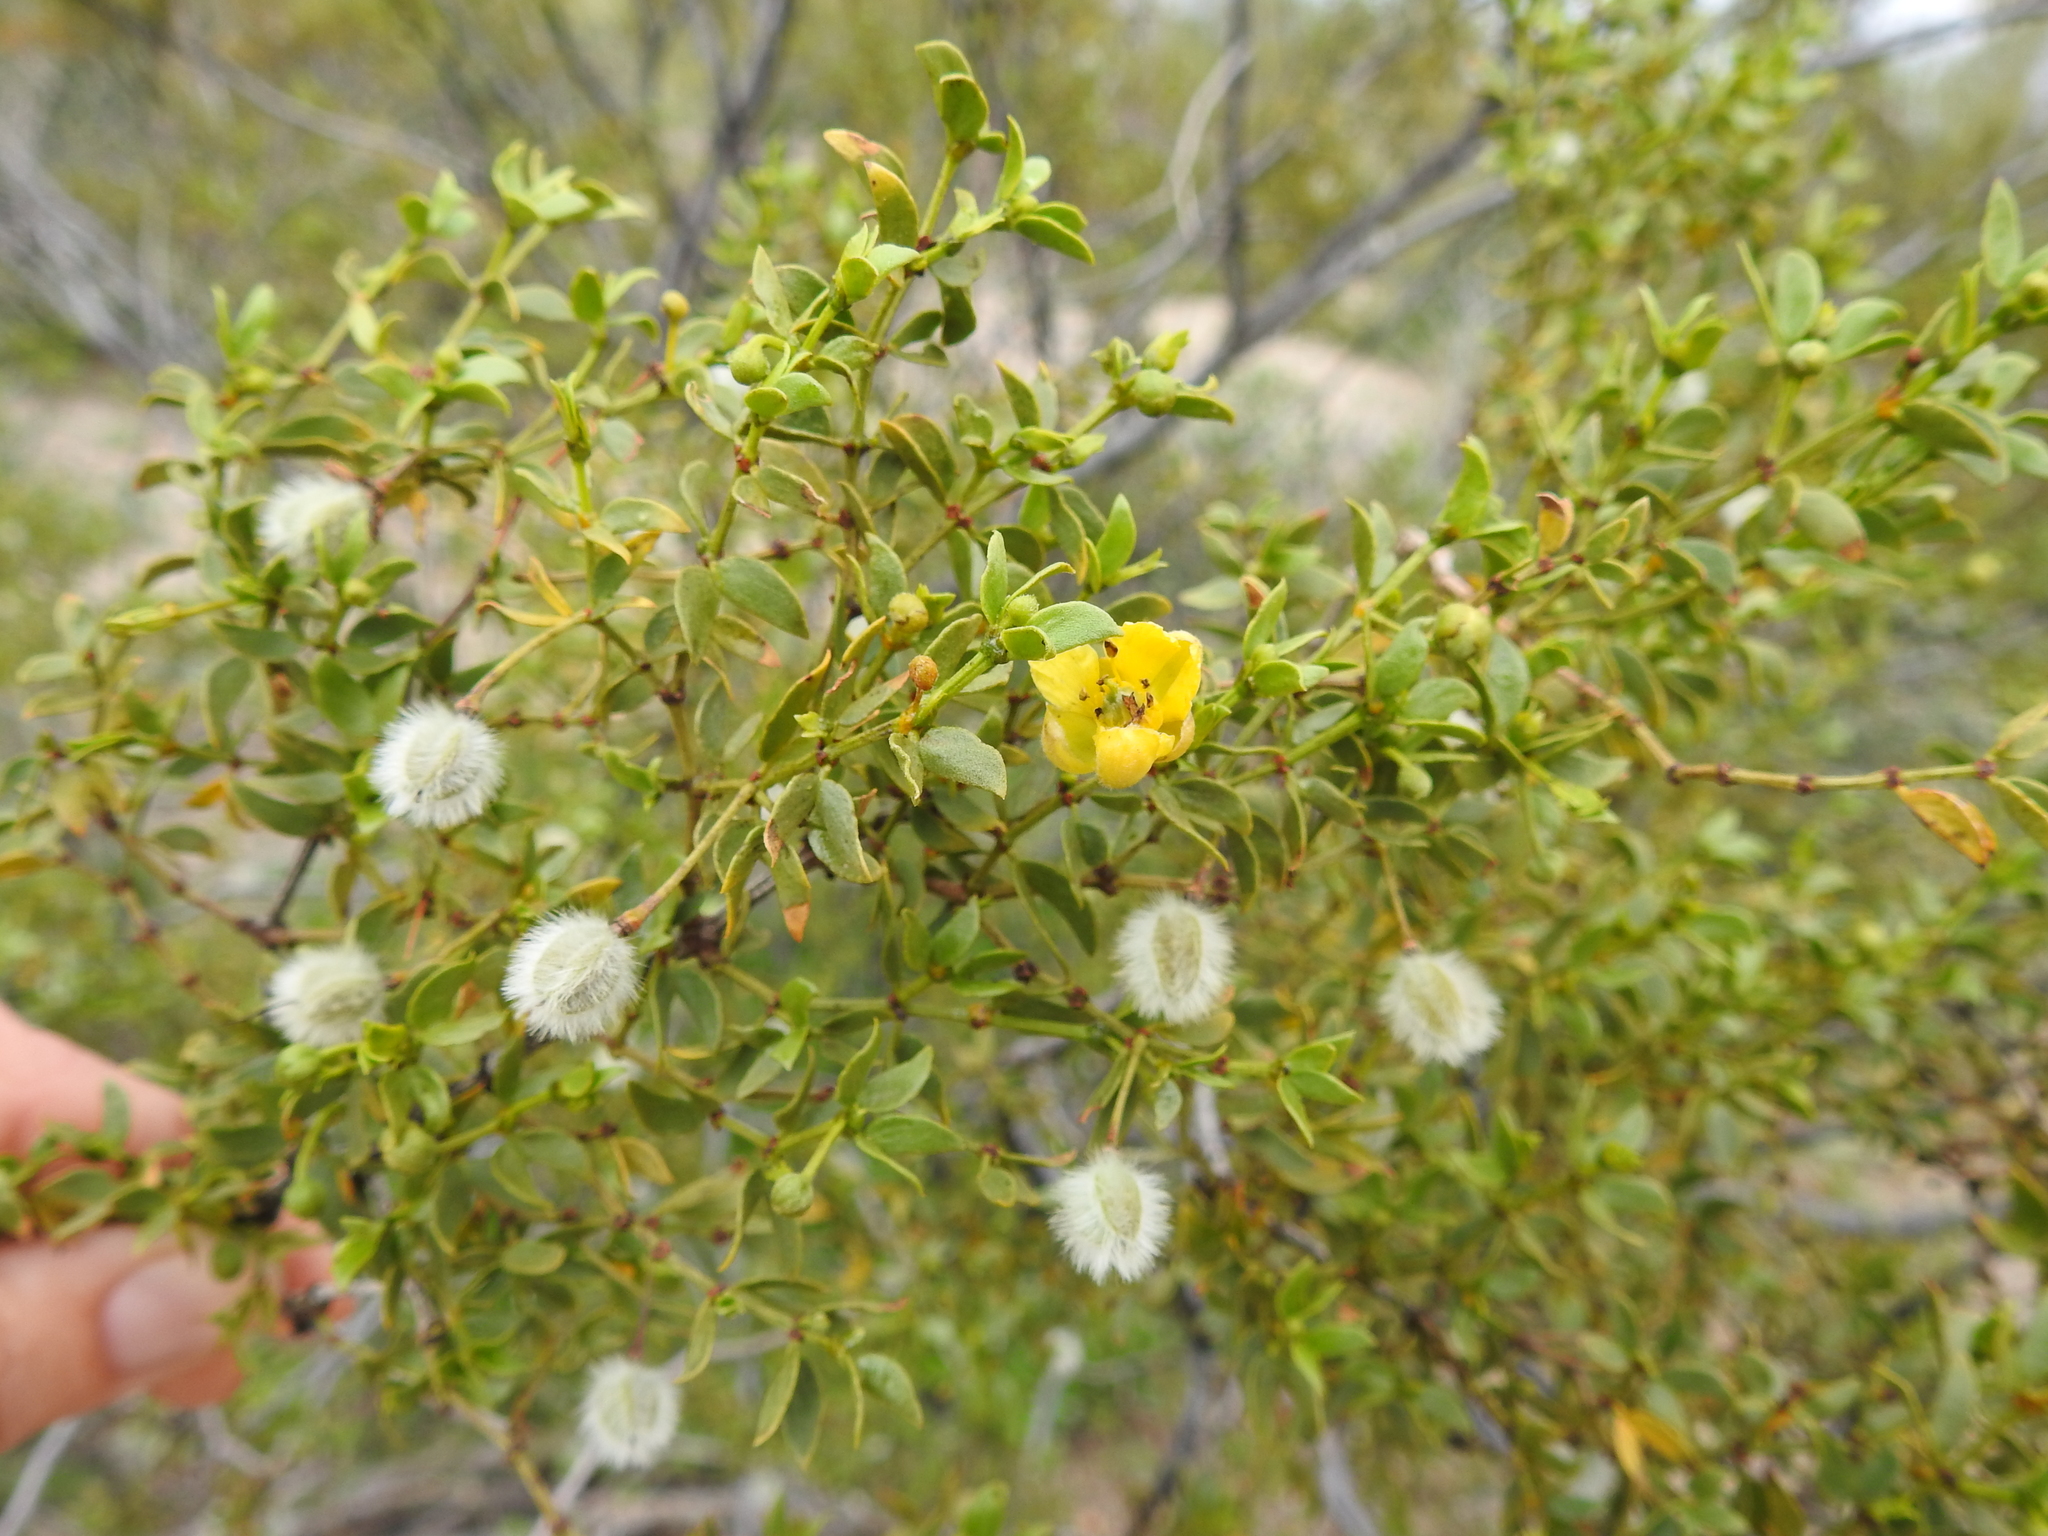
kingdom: Plantae
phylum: Tracheophyta
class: Magnoliopsida
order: Zygophyllales
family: Zygophyllaceae
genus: Larrea
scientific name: Larrea tridentata
